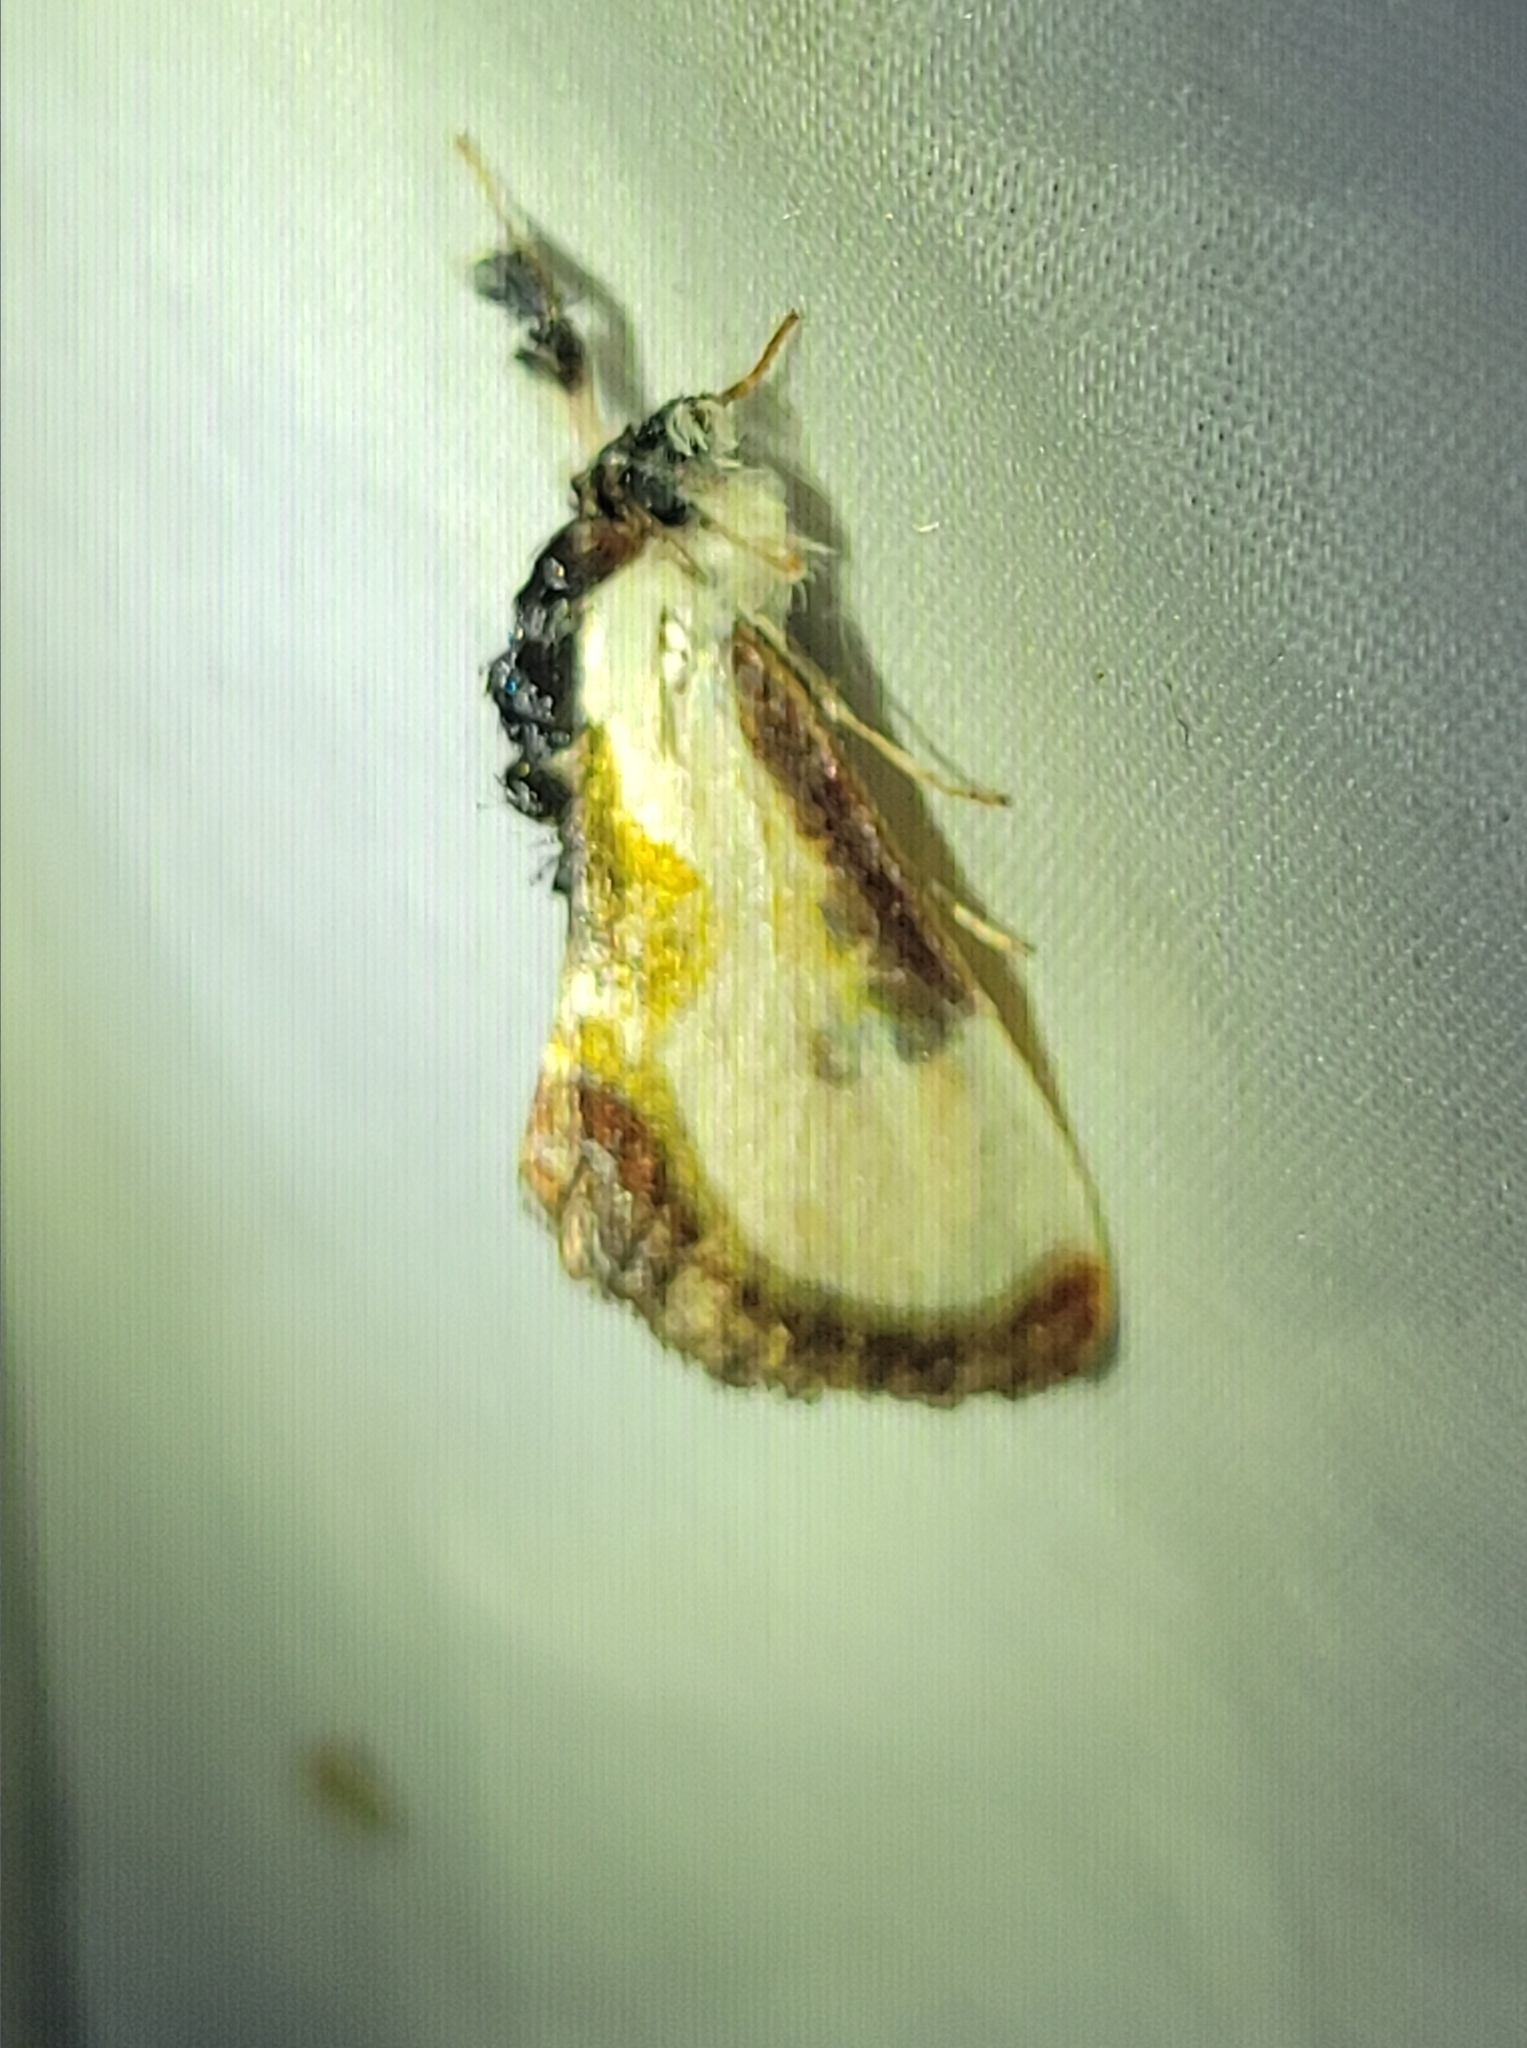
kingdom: Animalia
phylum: Arthropoda
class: Insecta
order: Lepidoptera
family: Noctuidae
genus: Eudryas
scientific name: Eudryas grata
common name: Beautiful wood-nymph
